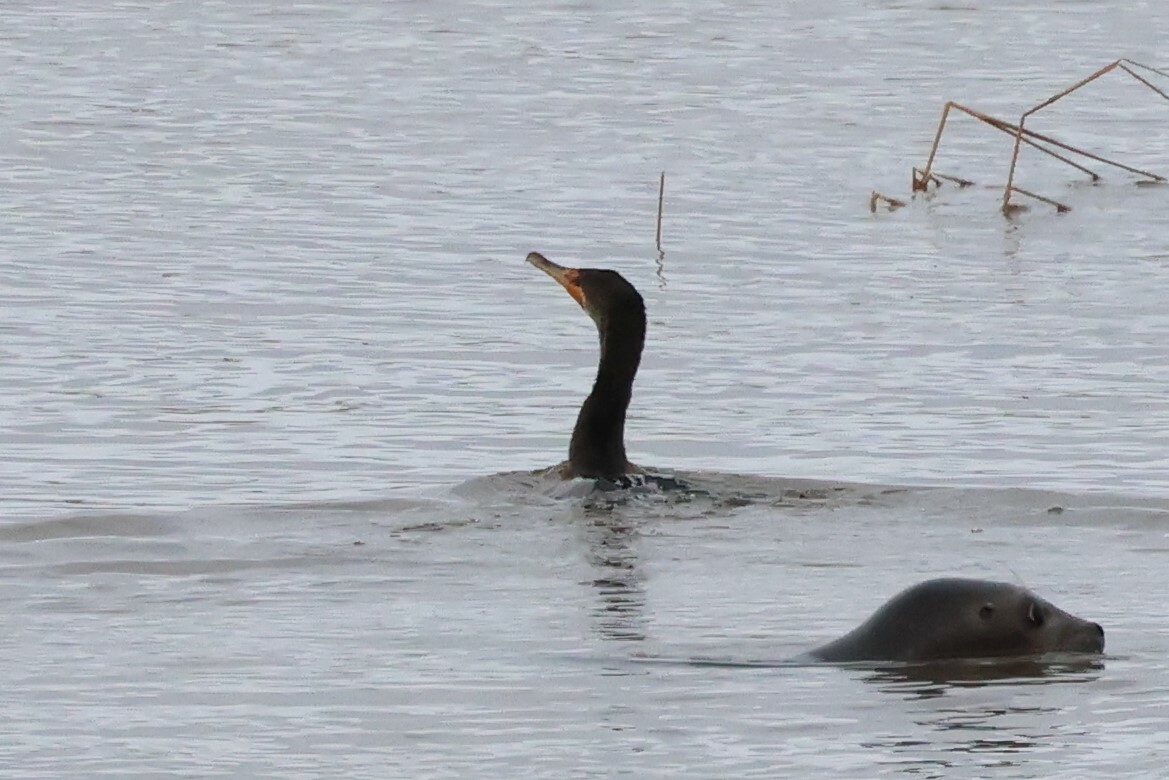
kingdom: Animalia
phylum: Chordata
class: Aves
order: Suliformes
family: Phalacrocoracidae
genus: Phalacrocorax
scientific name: Phalacrocorax auritus
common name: Double-crested cormorant
